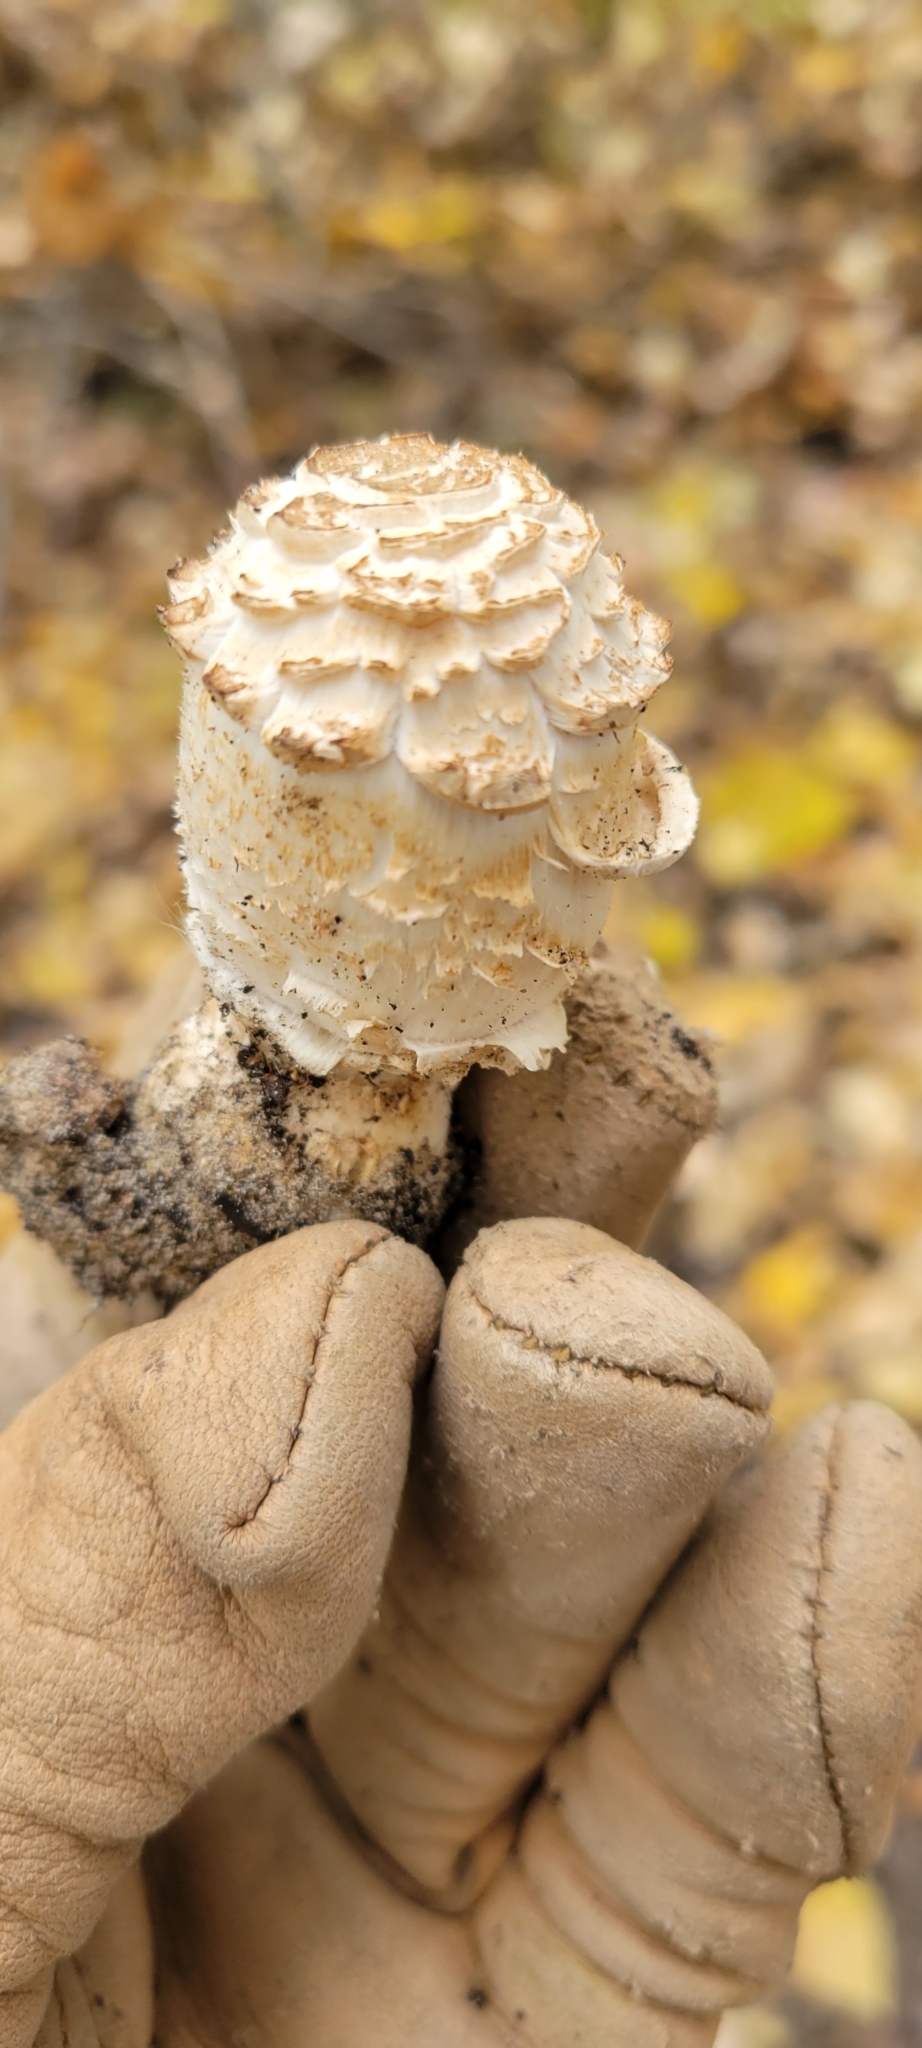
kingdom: Fungi
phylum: Basidiomycota
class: Agaricomycetes
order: Agaricales
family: Agaricaceae
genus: Coprinus
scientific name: Coprinus comatus
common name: Lawyer's wig
